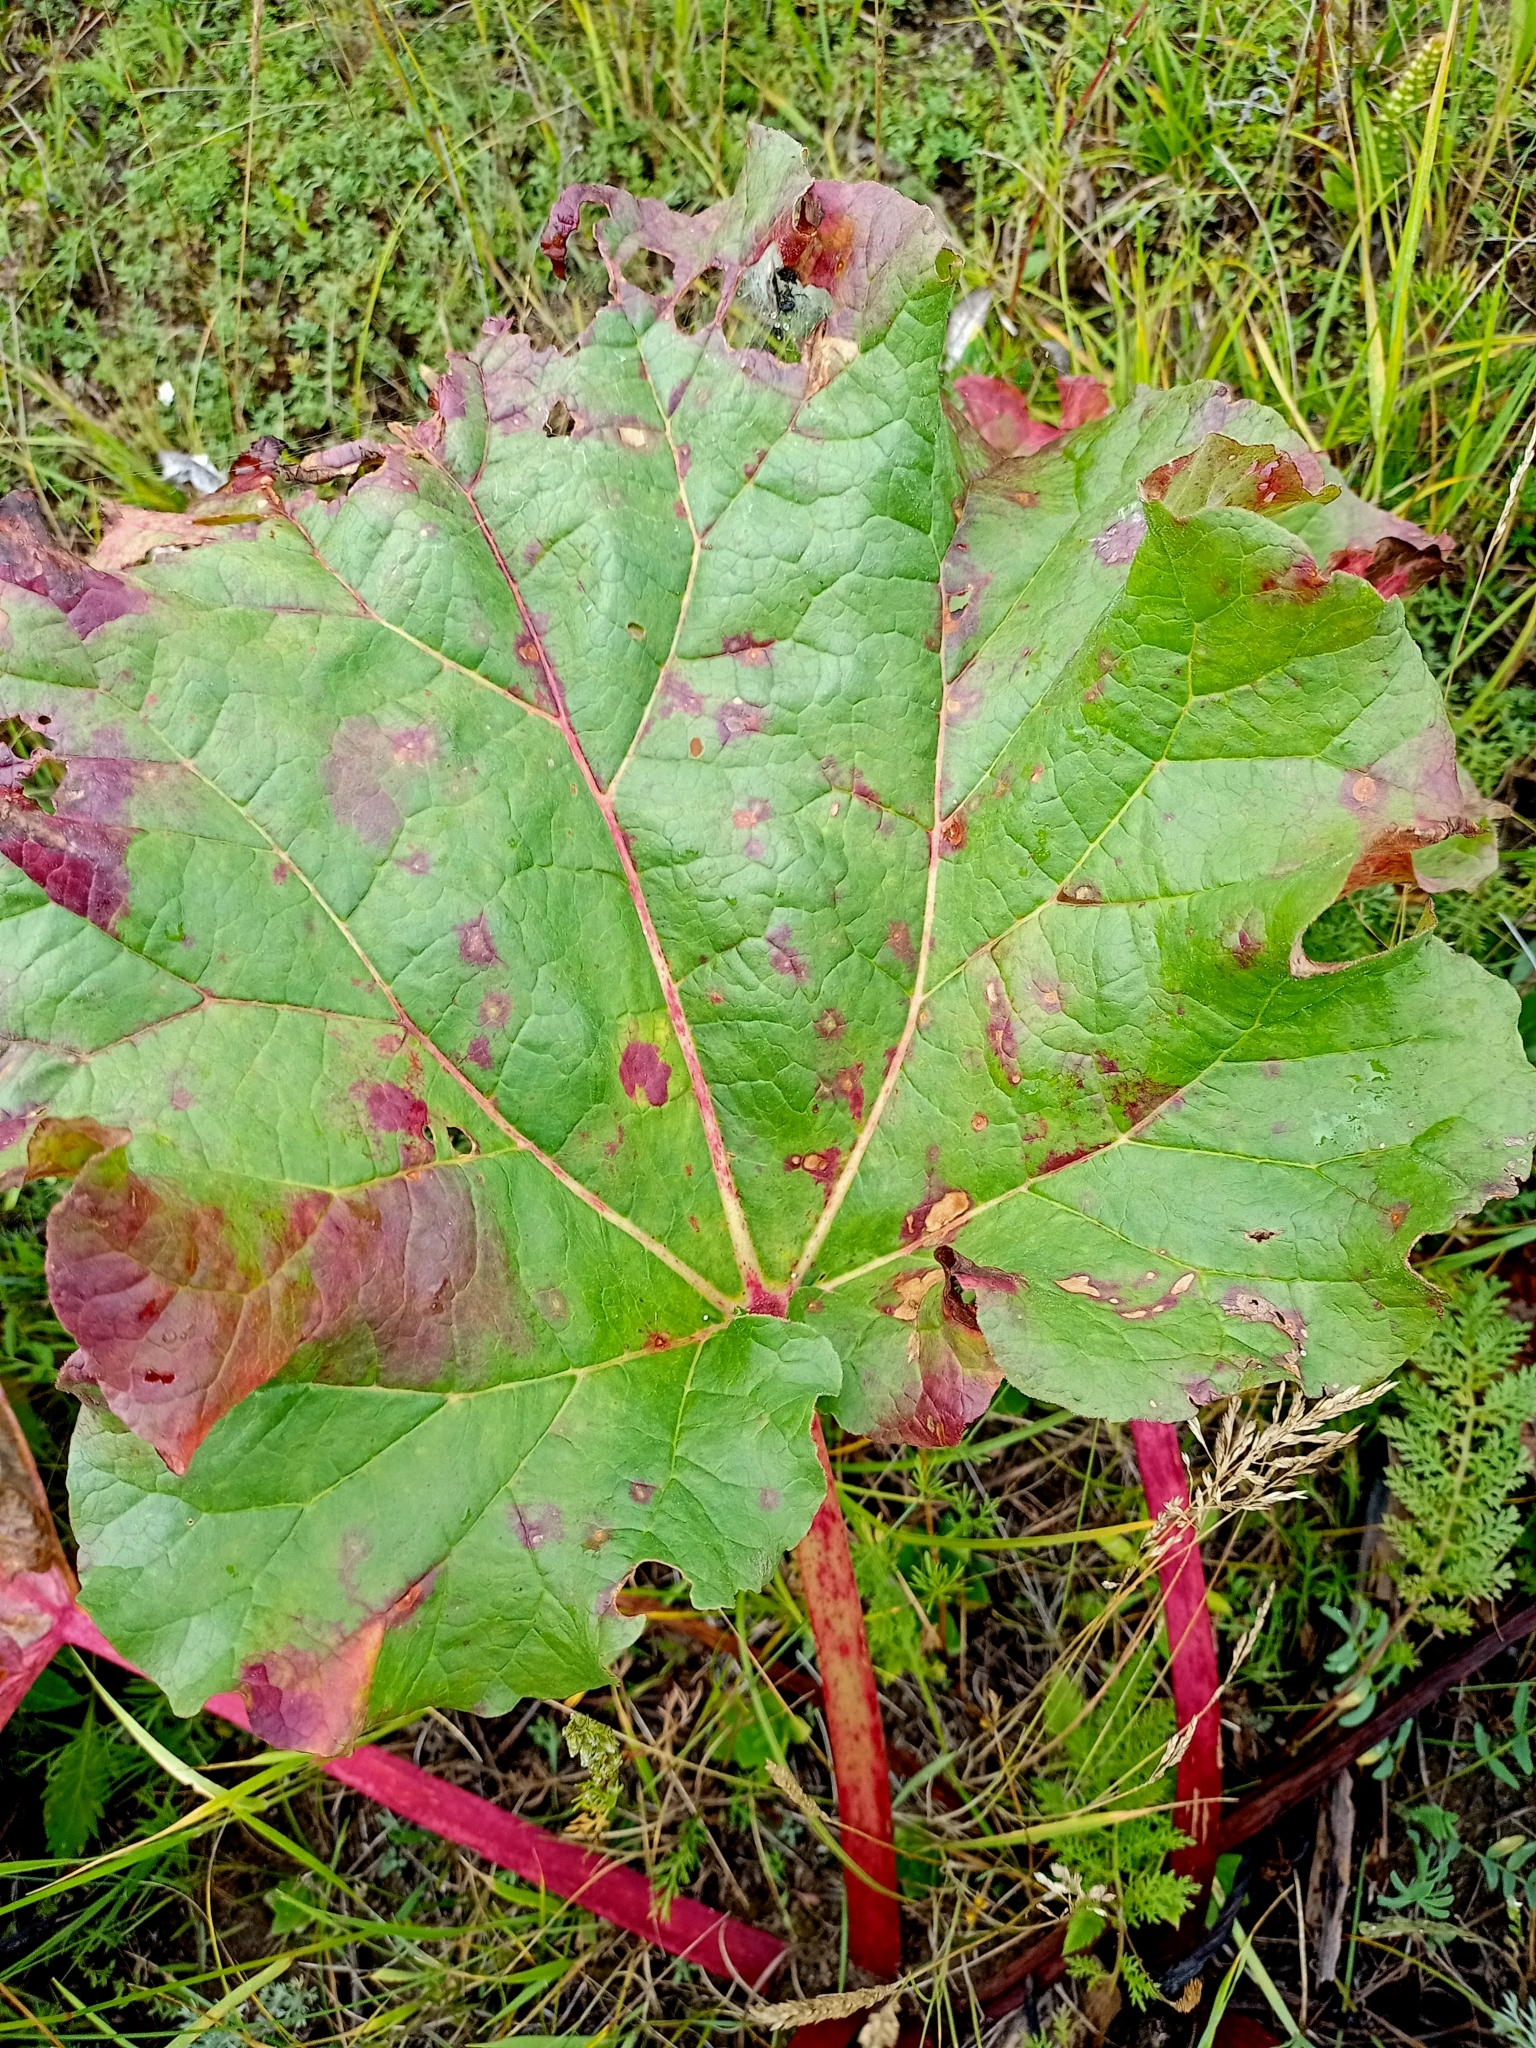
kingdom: Plantae
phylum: Tracheophyta
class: Magnoliopsida
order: Caryophyllales
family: Polygonaceae
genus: Rheum
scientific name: Rheum rhabarbarum
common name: Garden rhubarb
